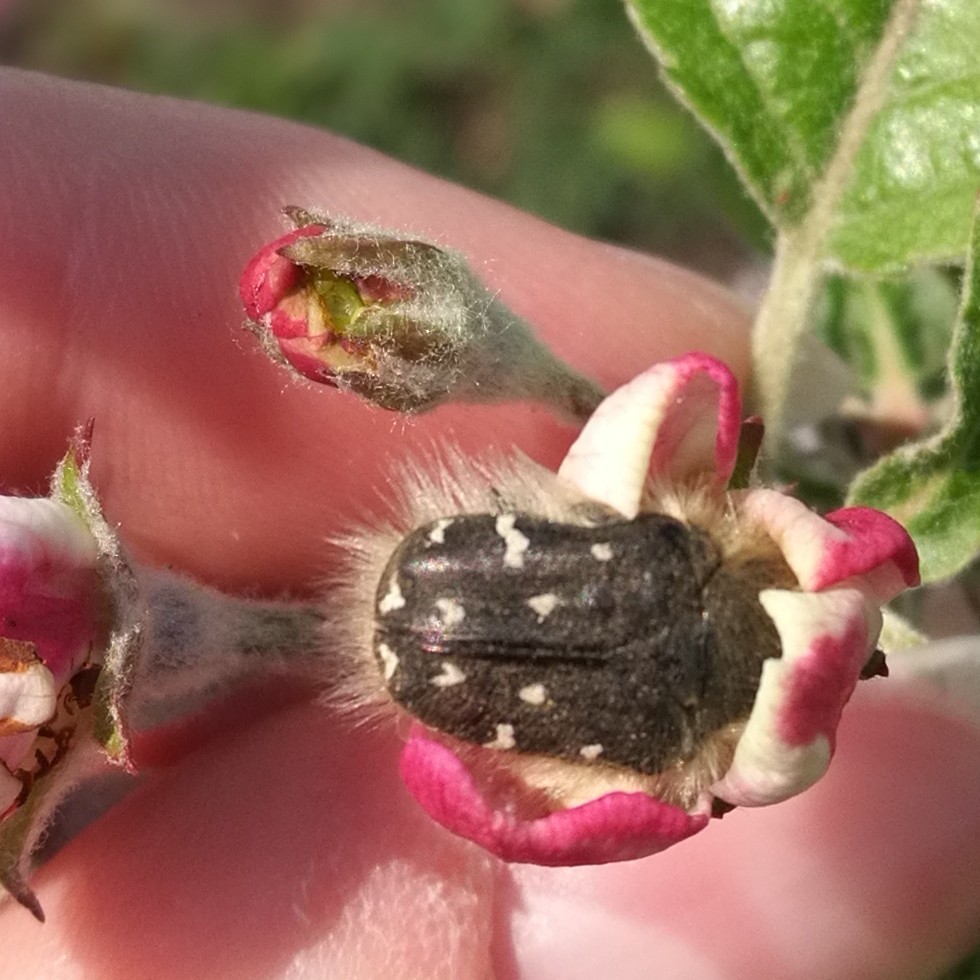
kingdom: Animalia
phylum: Arthropoda
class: Insecta
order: Coleoptera
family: Scarabaeidae
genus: Tropinota
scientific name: Tropinota hirta
